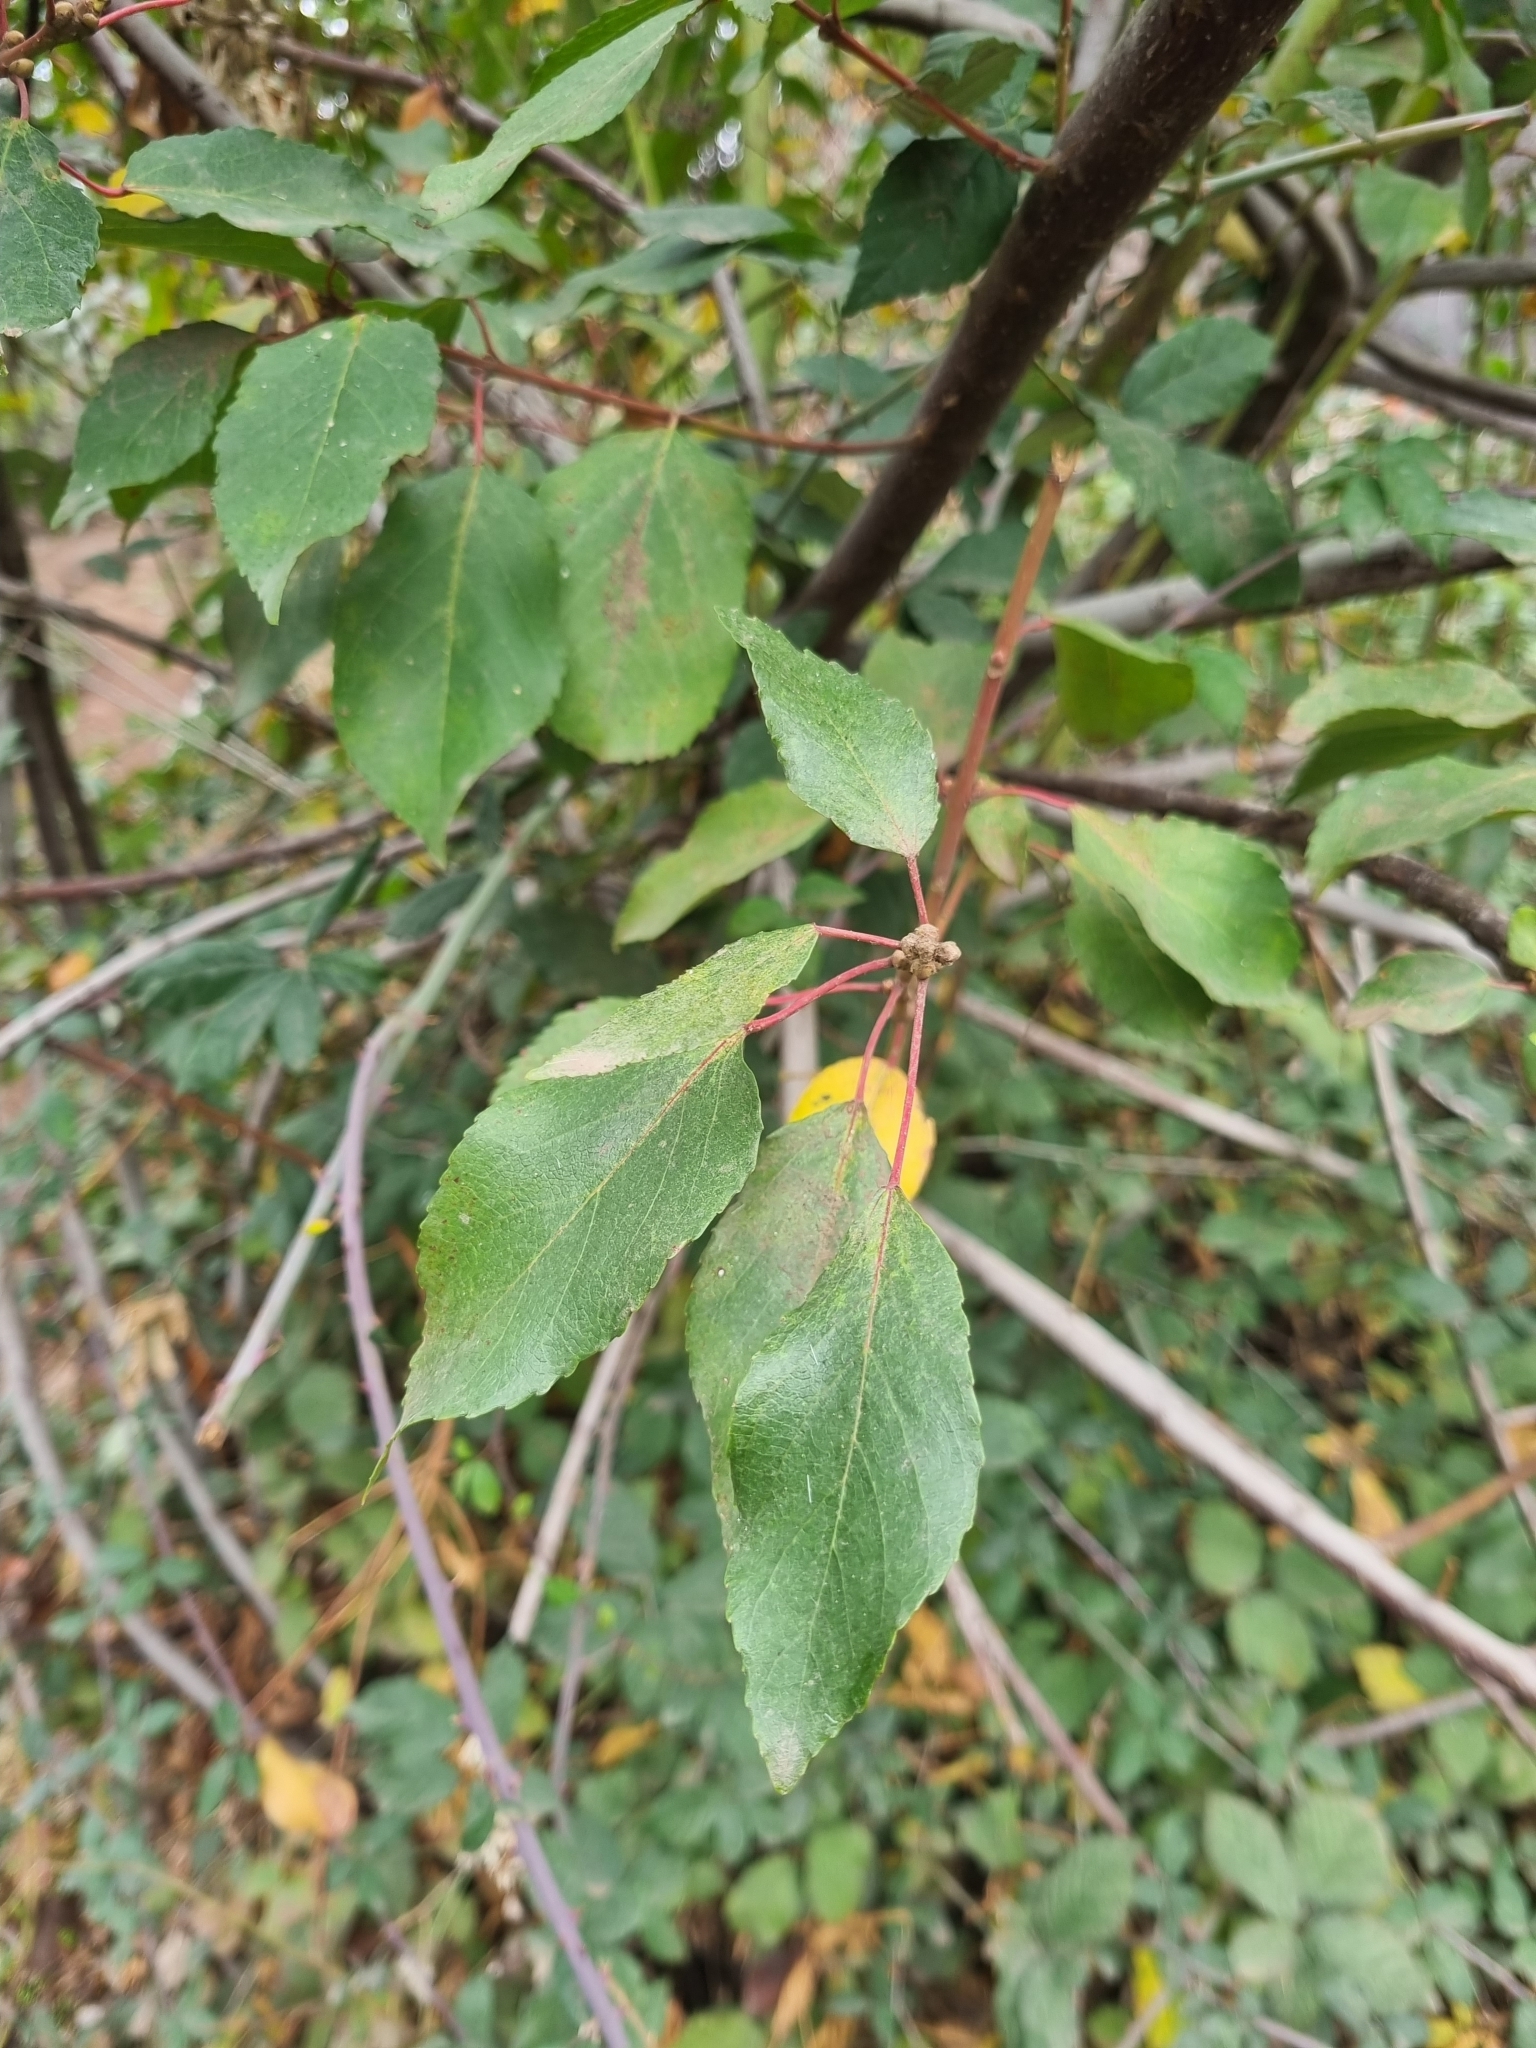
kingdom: Plantae
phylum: Tracheophyta
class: Magnoliopsida
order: Oxalidales
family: Elaeocarpaceae
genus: Aristotelia
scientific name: Aristotelia chilensis
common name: Maquei
